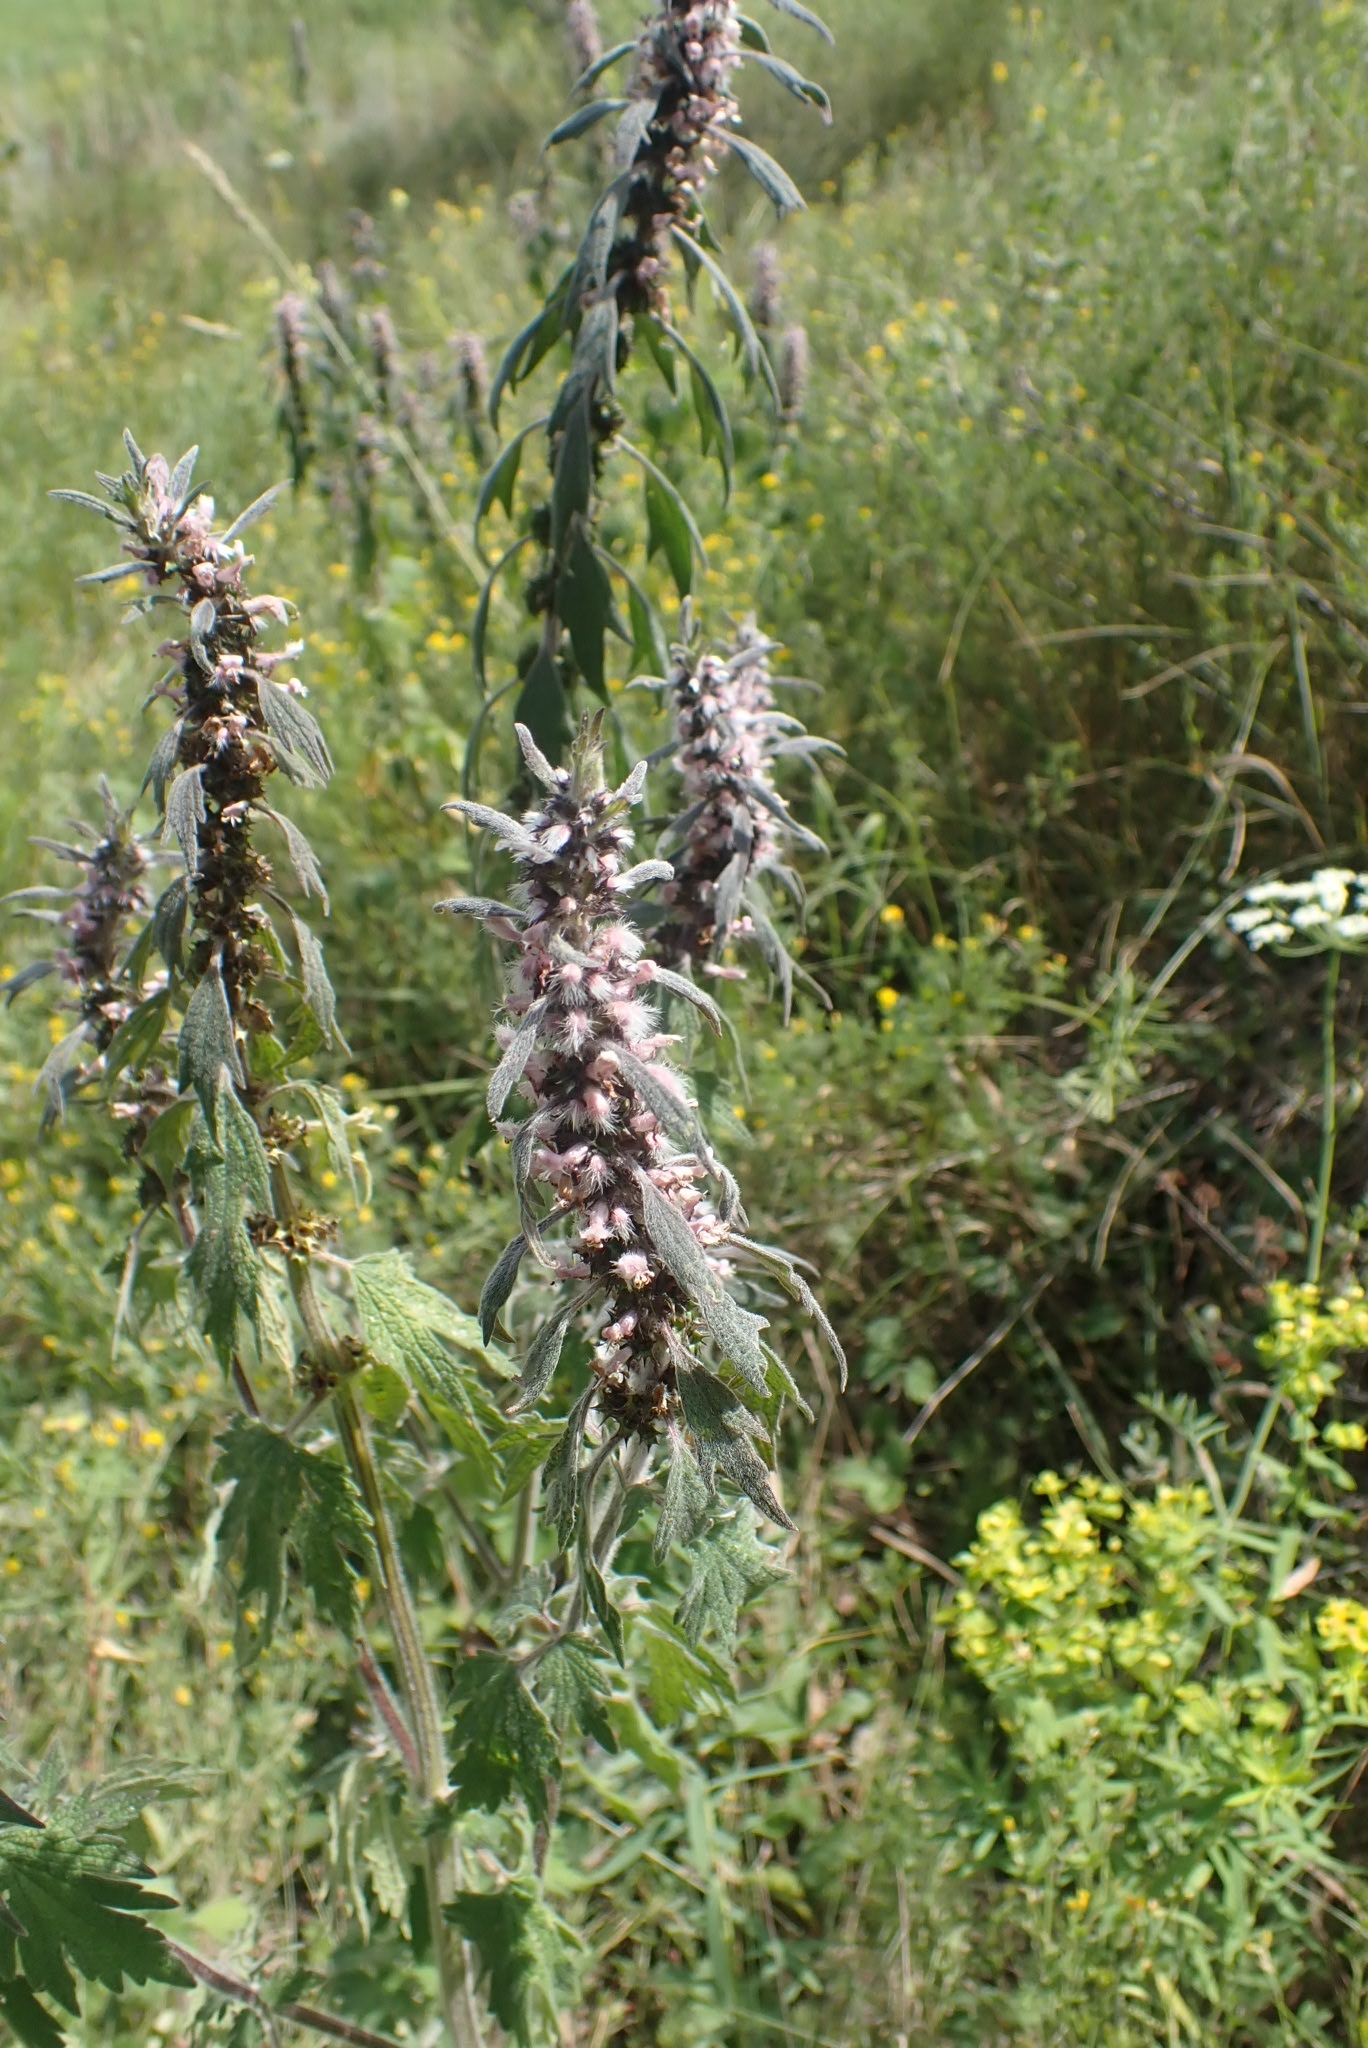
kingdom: Plantae
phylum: Tracheophyta
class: Magnoliopsida
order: Lamiales
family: Lamiaceae
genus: Leonurus
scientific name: Leonurus quinquelobatus
